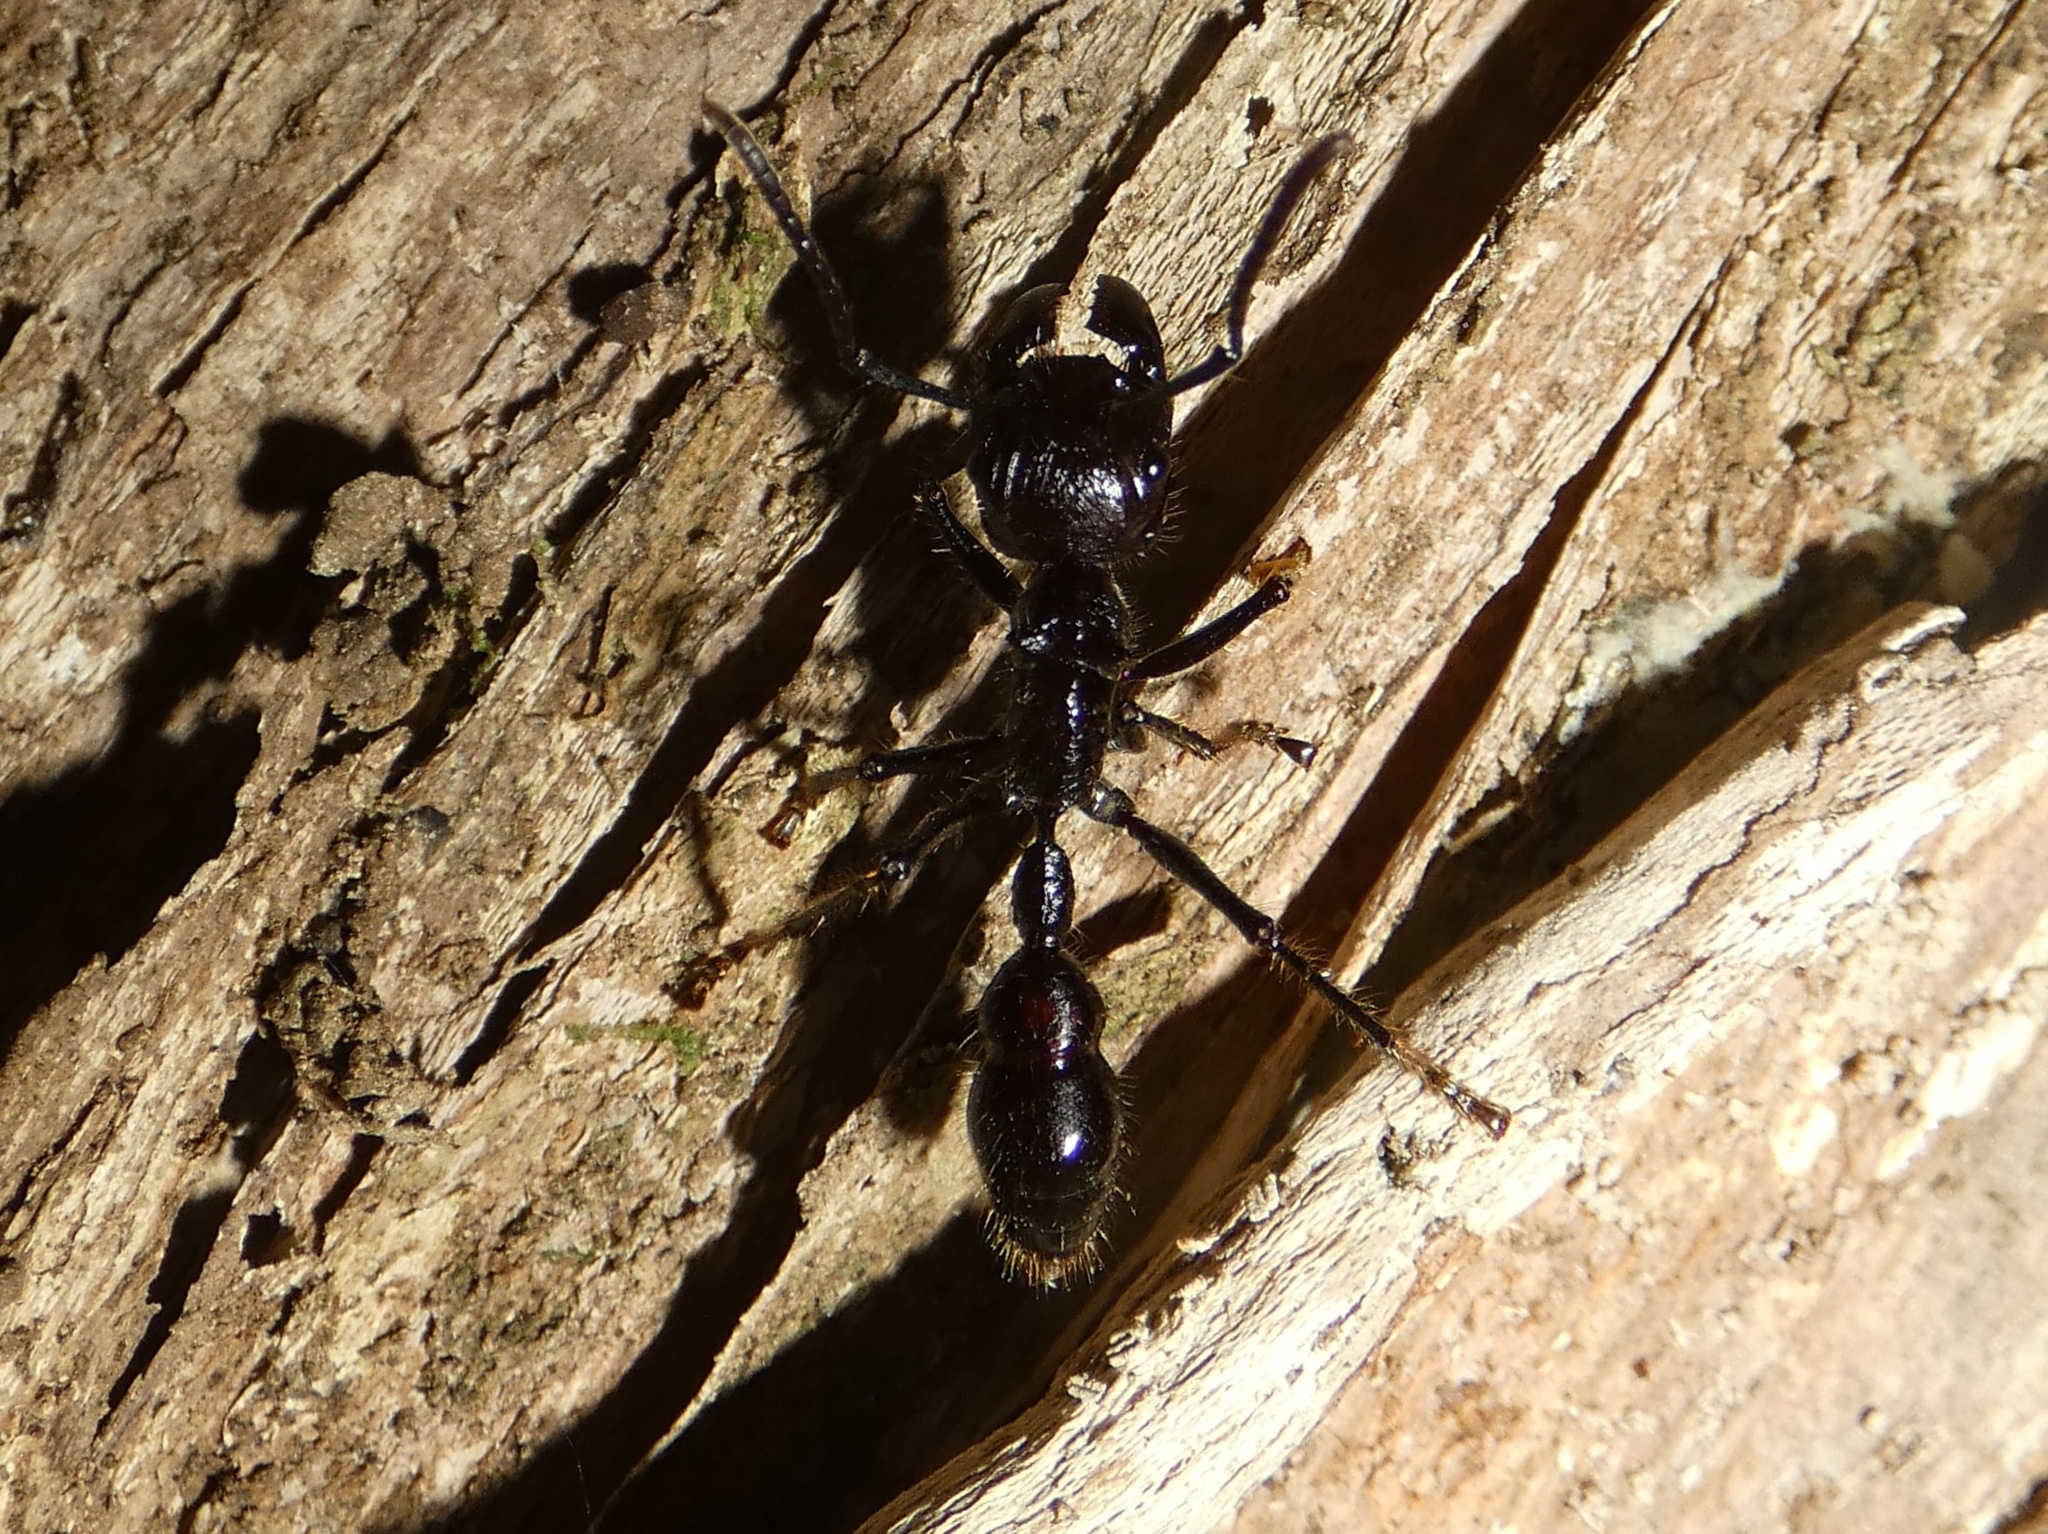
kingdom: Animalia
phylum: Arthropoda
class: Insecta
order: Hymenoptera
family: Formicidae
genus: Paraponera
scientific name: Paraponera clavata
